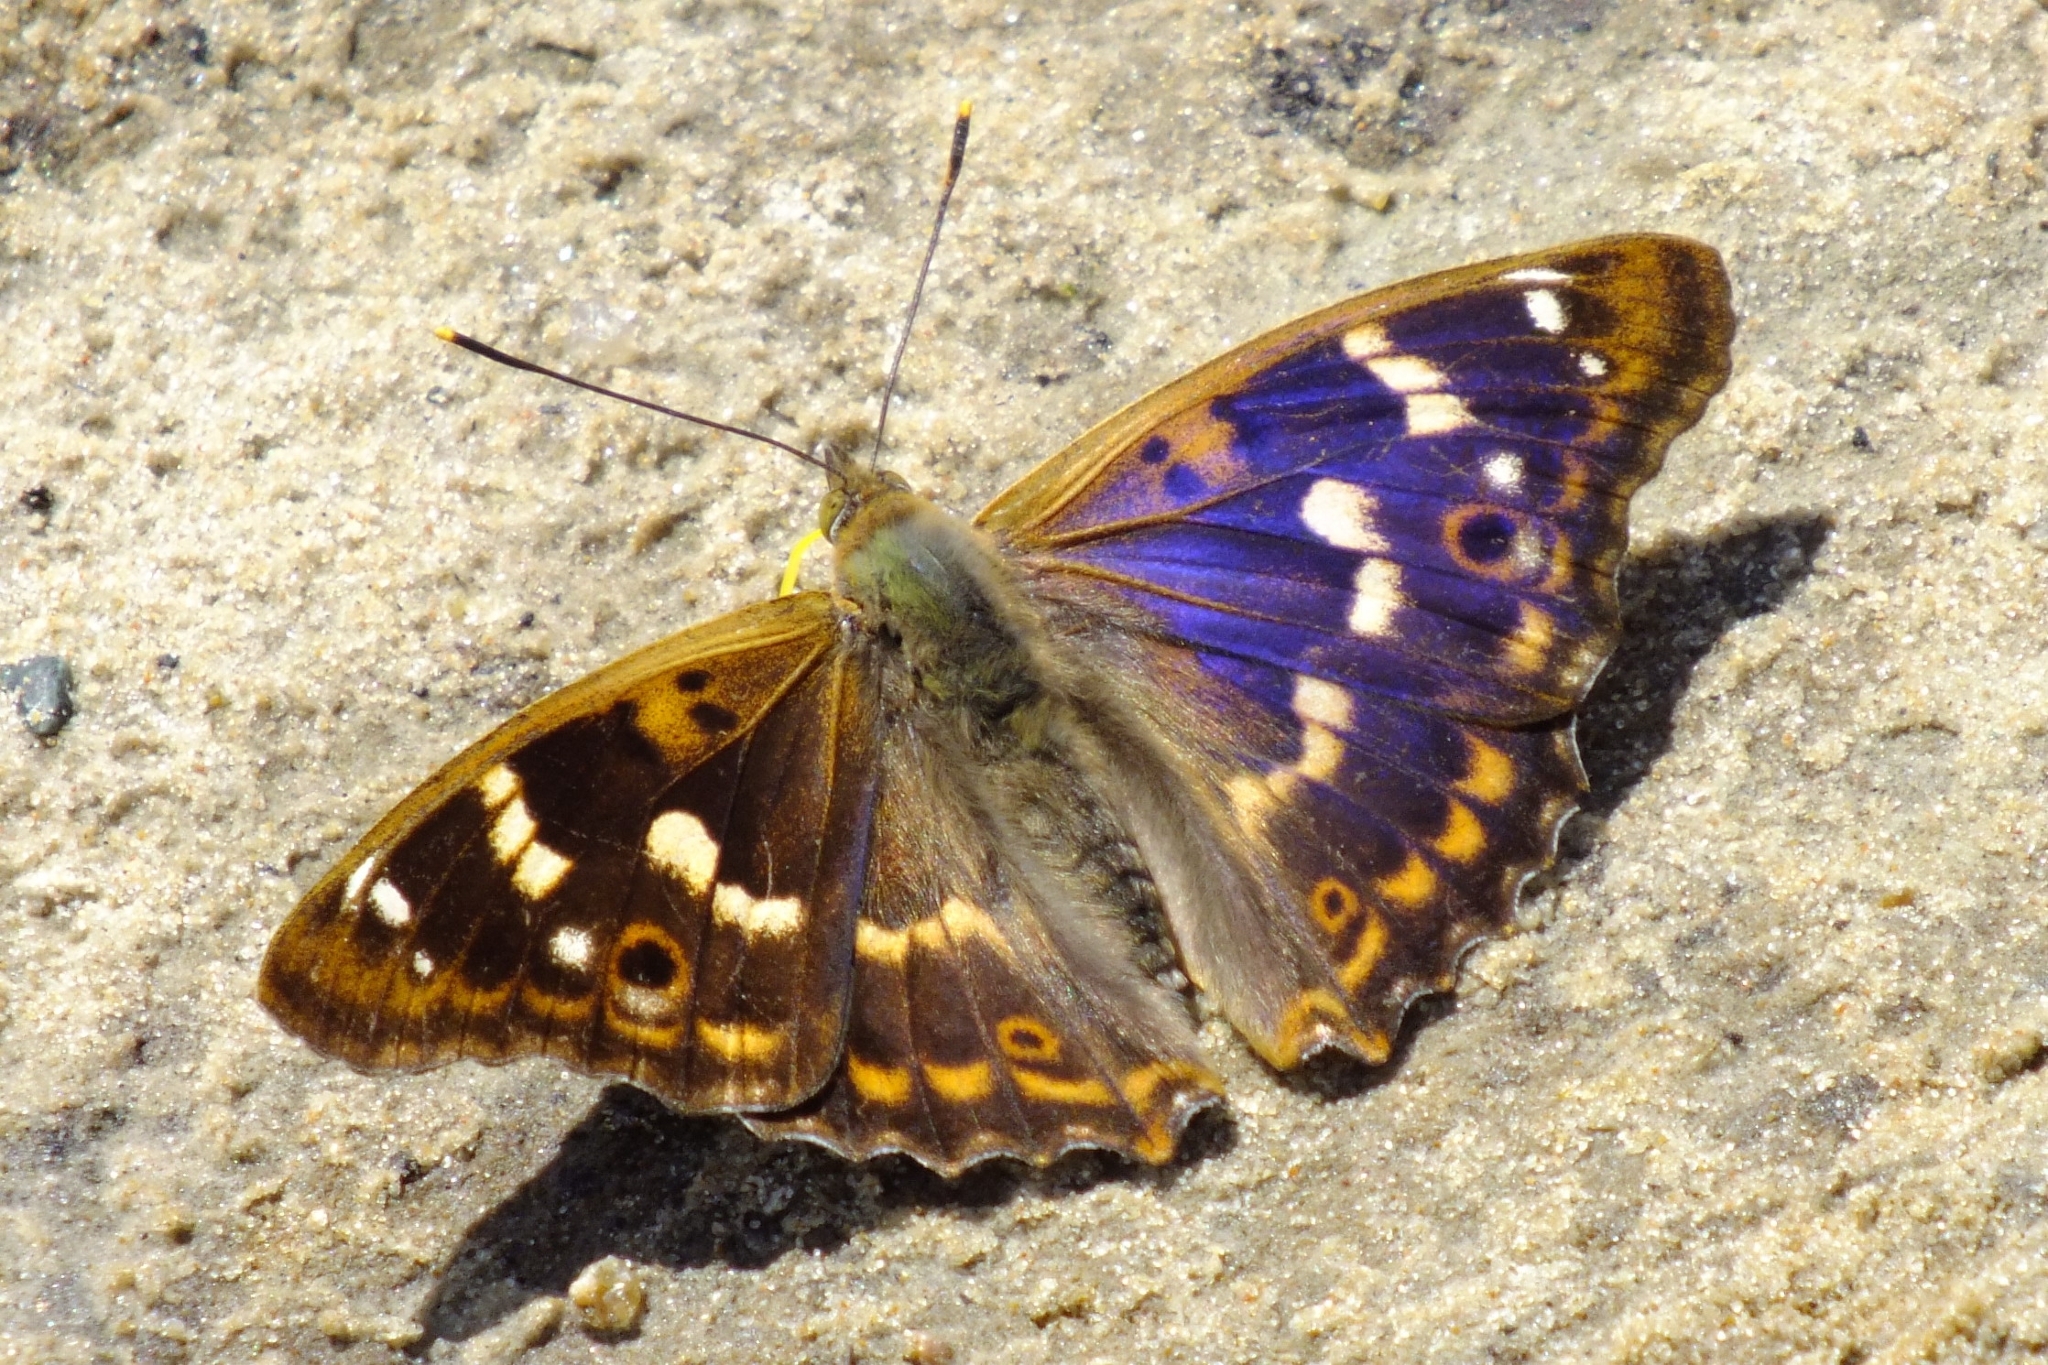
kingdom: Animalia
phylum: Arthropoda
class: Insecta
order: Lepidoptera
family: Nymphalidae
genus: Apatura
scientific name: Apatura ilia
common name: Lesser purple emperor
